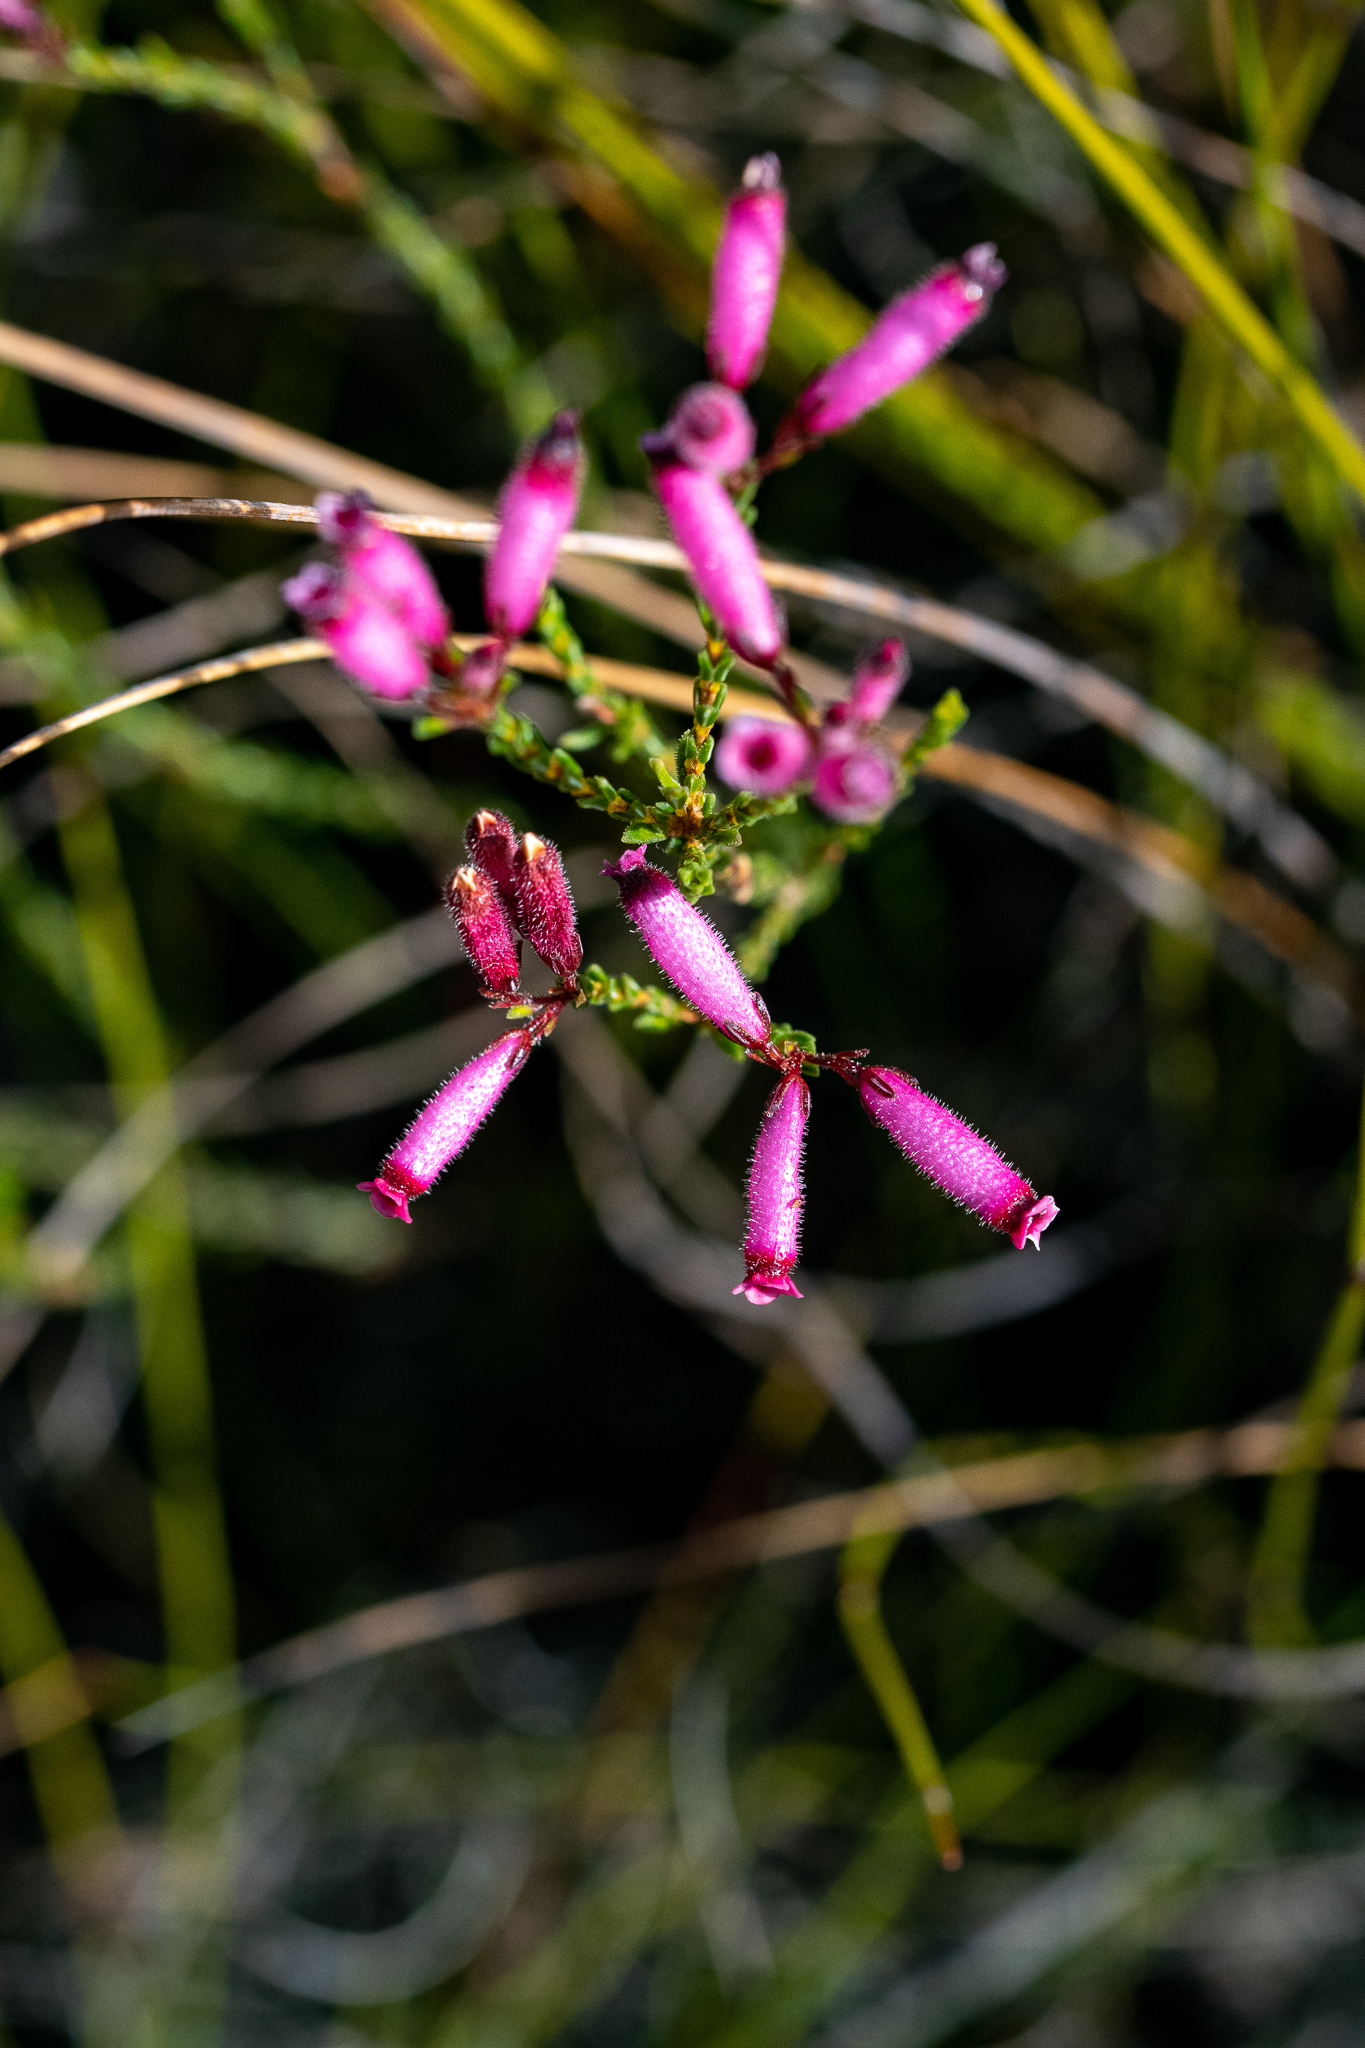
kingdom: Plantae
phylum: Tracheophyta
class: Magnoliopsida
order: Ericales
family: Ericaceae
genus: Erica
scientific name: Erica cristata
